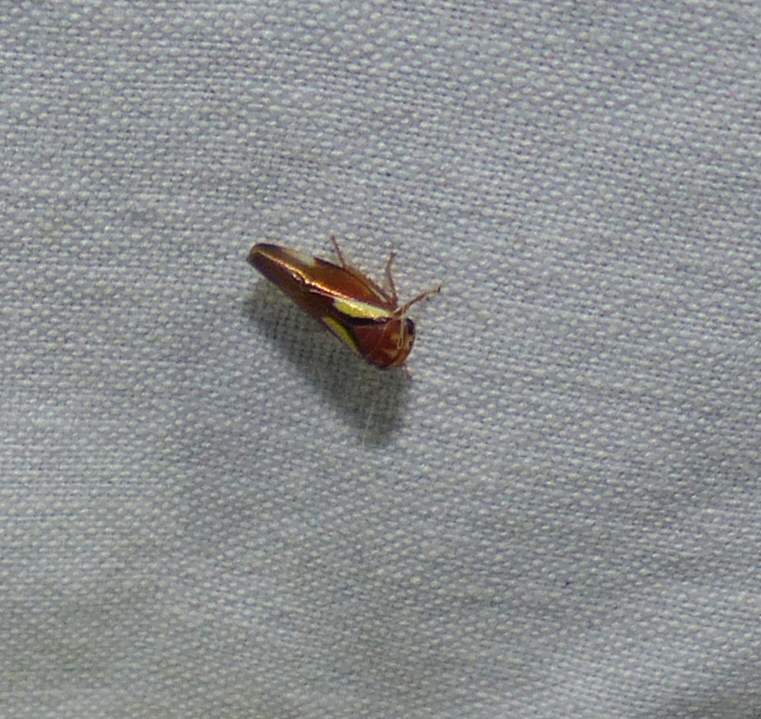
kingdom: Animalia
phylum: Arthropoda
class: Insecta
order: Hemiptera
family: Cicadellidae
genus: Balcanocerus
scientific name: Balcanocerus provancheri
